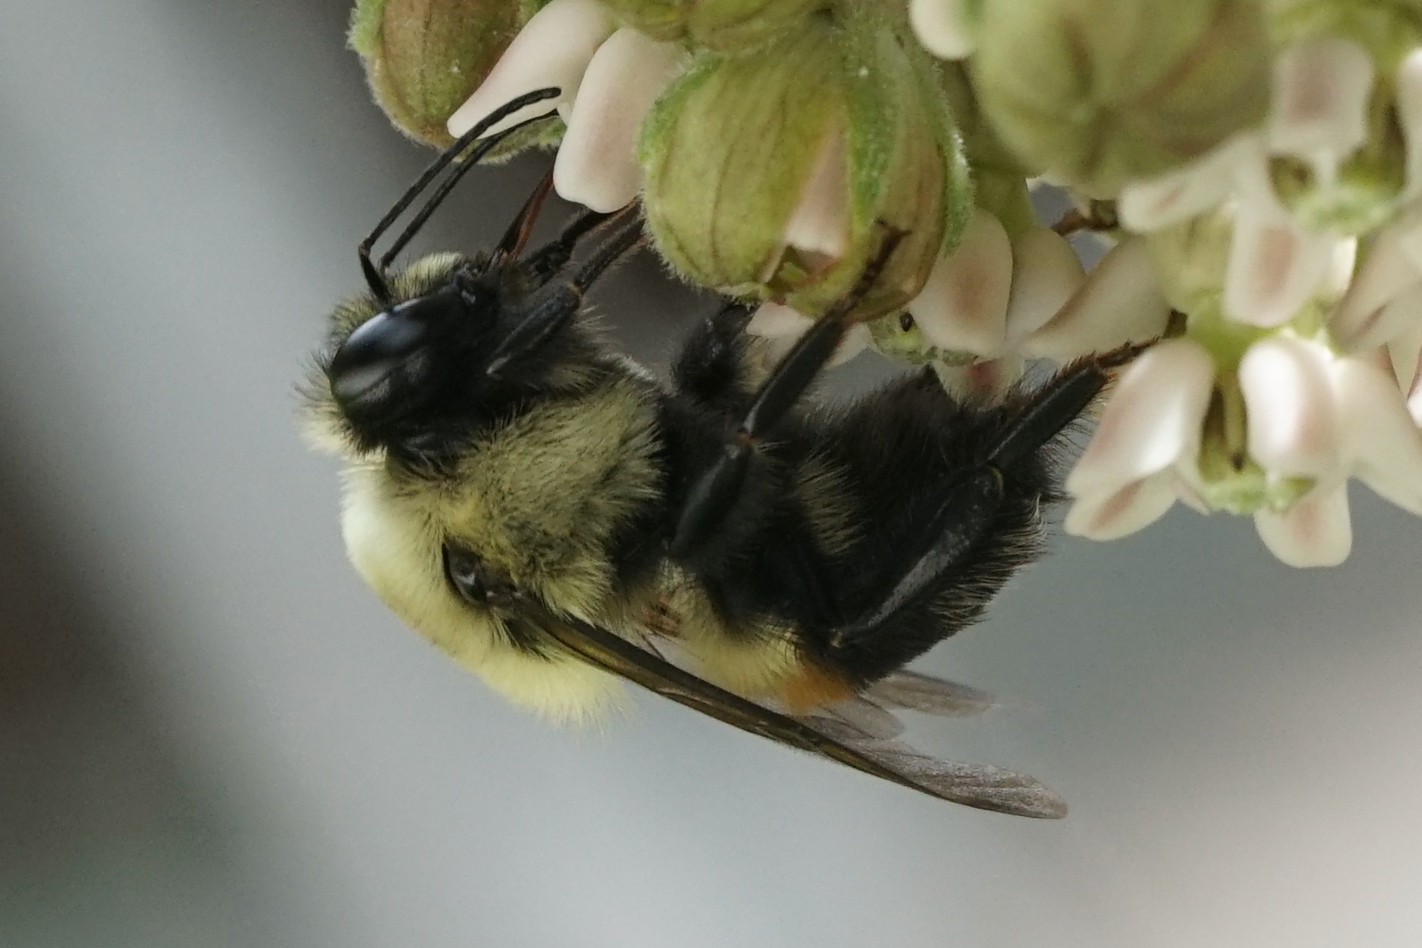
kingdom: Animalia
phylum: Arthropoda
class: Insecta
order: Hymenoptera
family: Apidae
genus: Bombus
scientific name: Bombus griseocollis
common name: Brown-belted bumble bee
